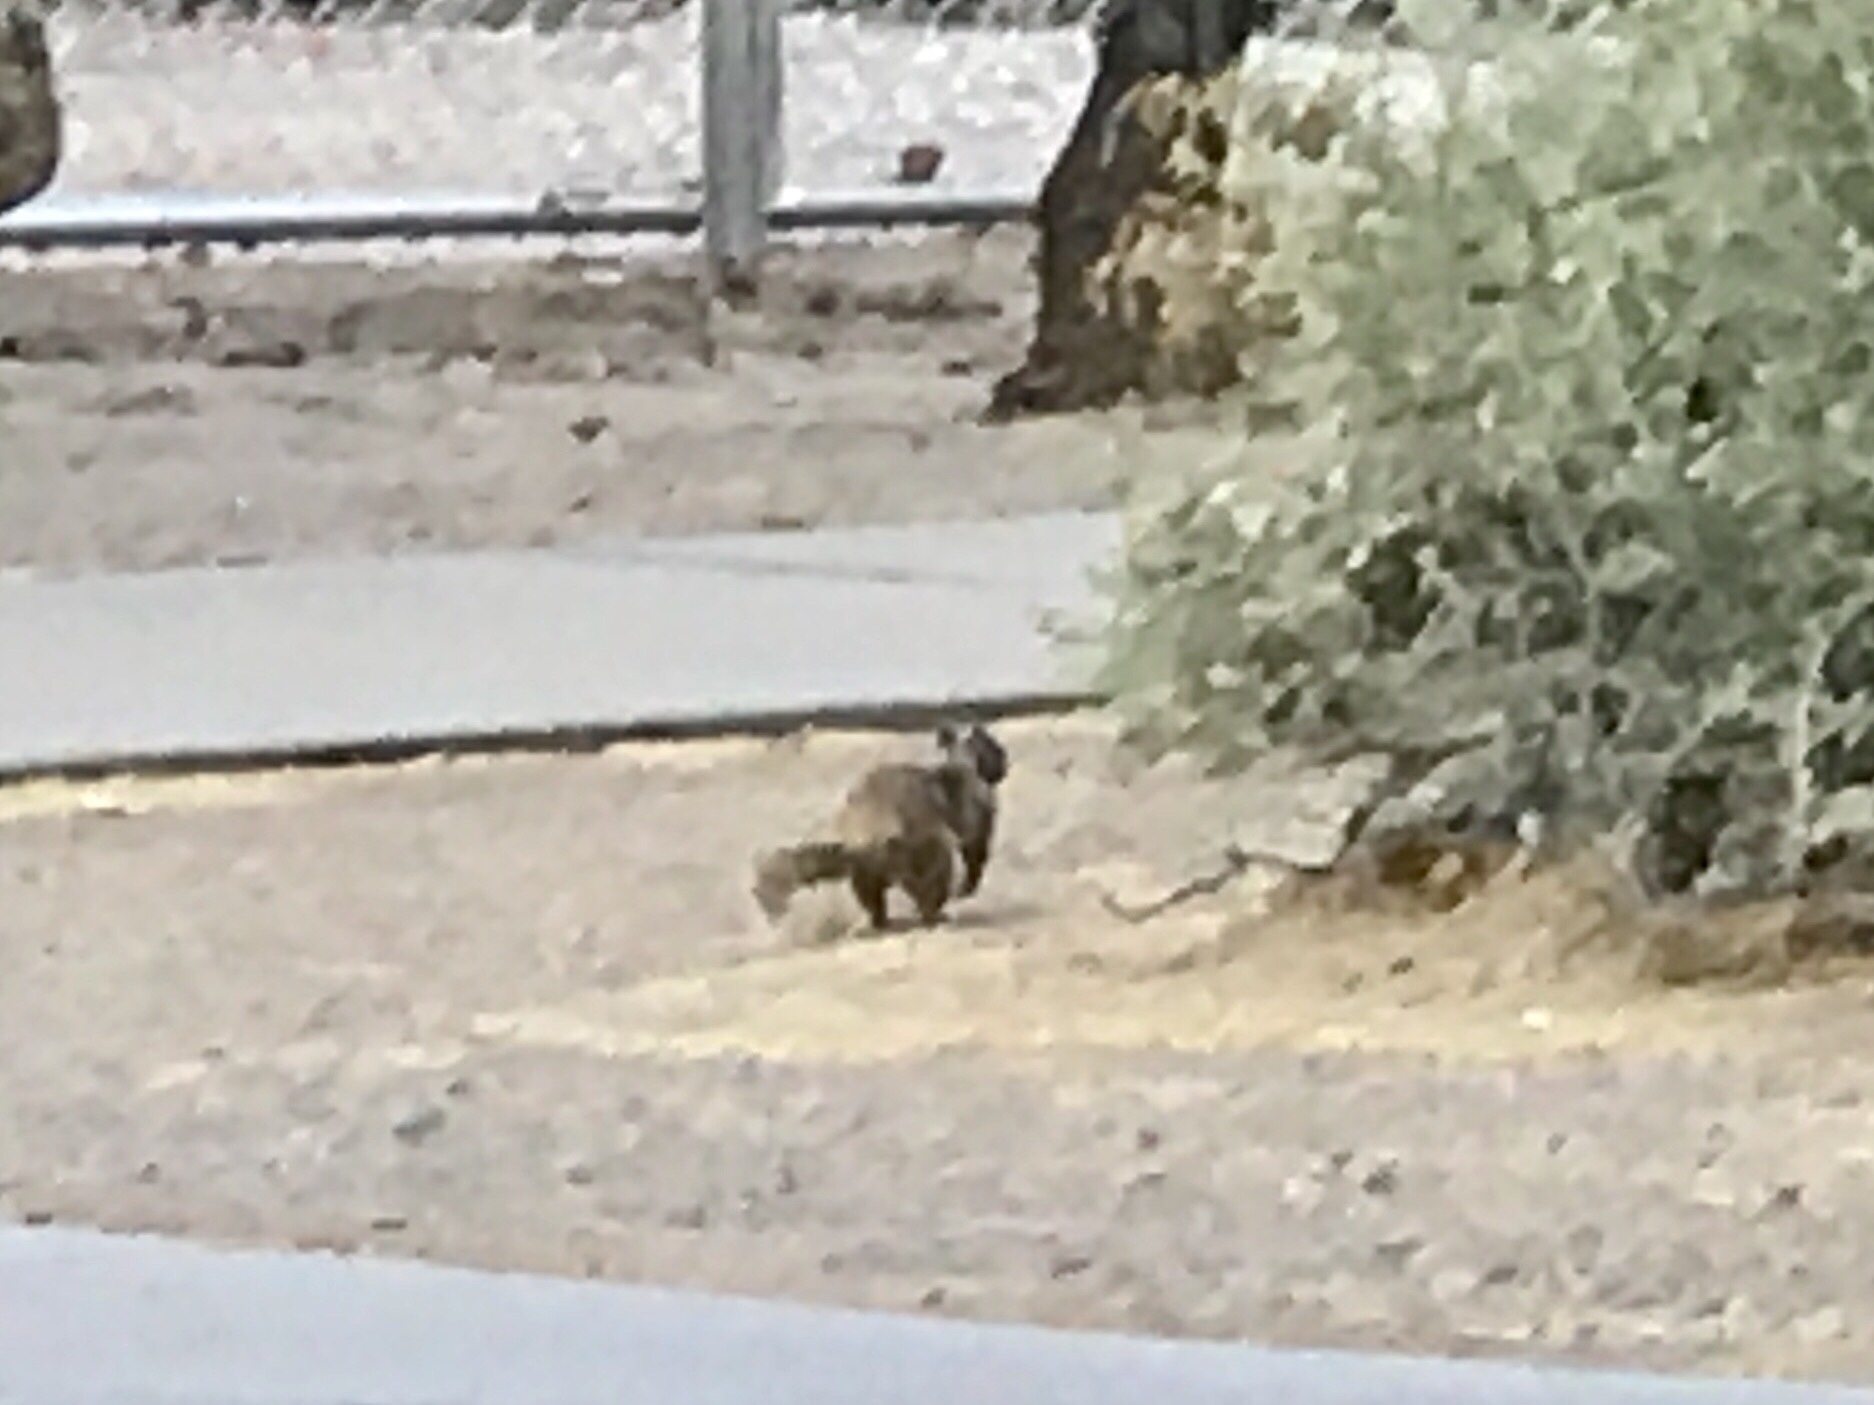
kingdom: Animalia
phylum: Chordata
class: Mammalia
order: Rodentia
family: Sciuridae
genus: Otospermophilus
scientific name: Otospermophilus variegatus
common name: Rock squirrel
